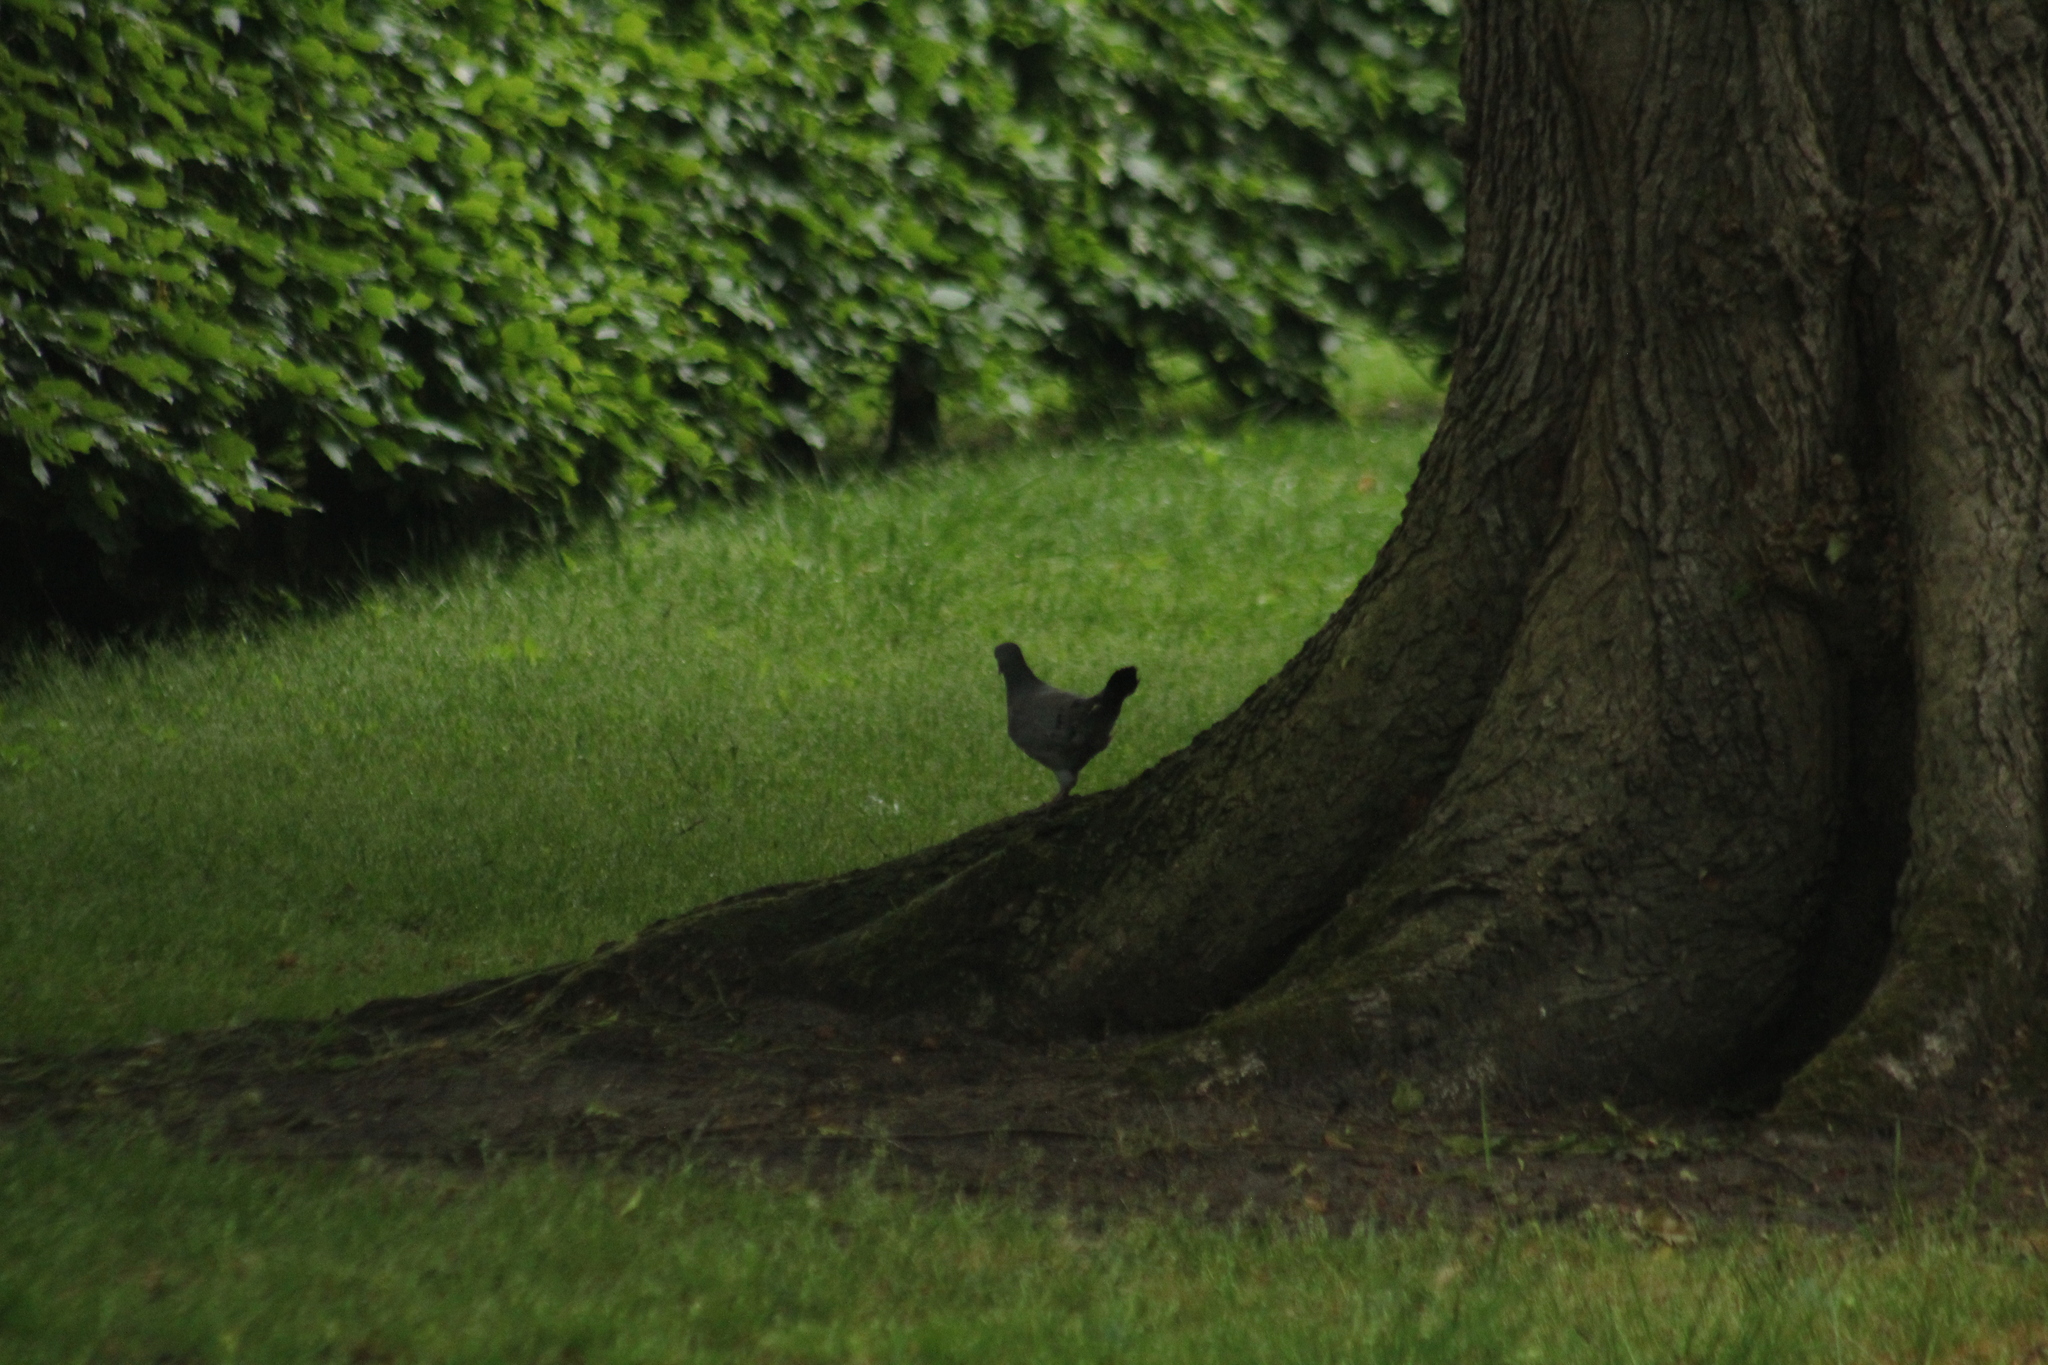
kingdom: Animalia
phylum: Chordata
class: Aves
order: Columbiformes
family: Columbidae
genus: Columba
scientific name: Columba oenas
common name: Stock dove
